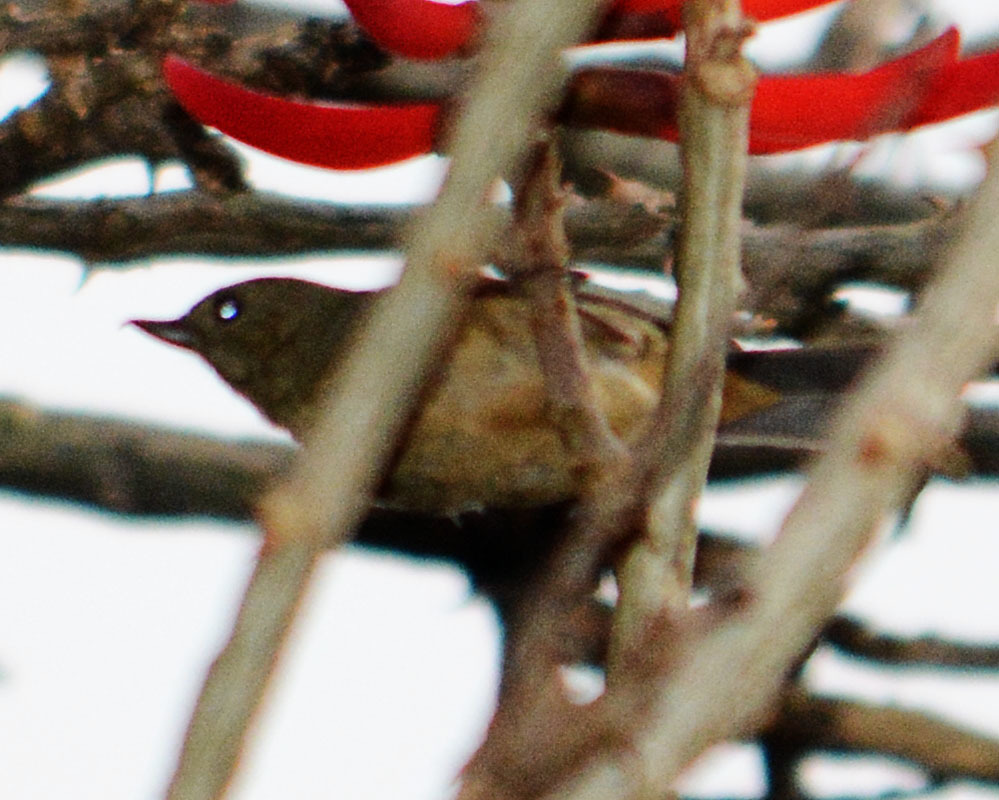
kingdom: Animalia
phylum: Chordata
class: Aves
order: Passeriformes
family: Thraupidae
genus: Diglossa
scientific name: Diglossa baritula
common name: Cinnamon-bellied flowerpiercer
